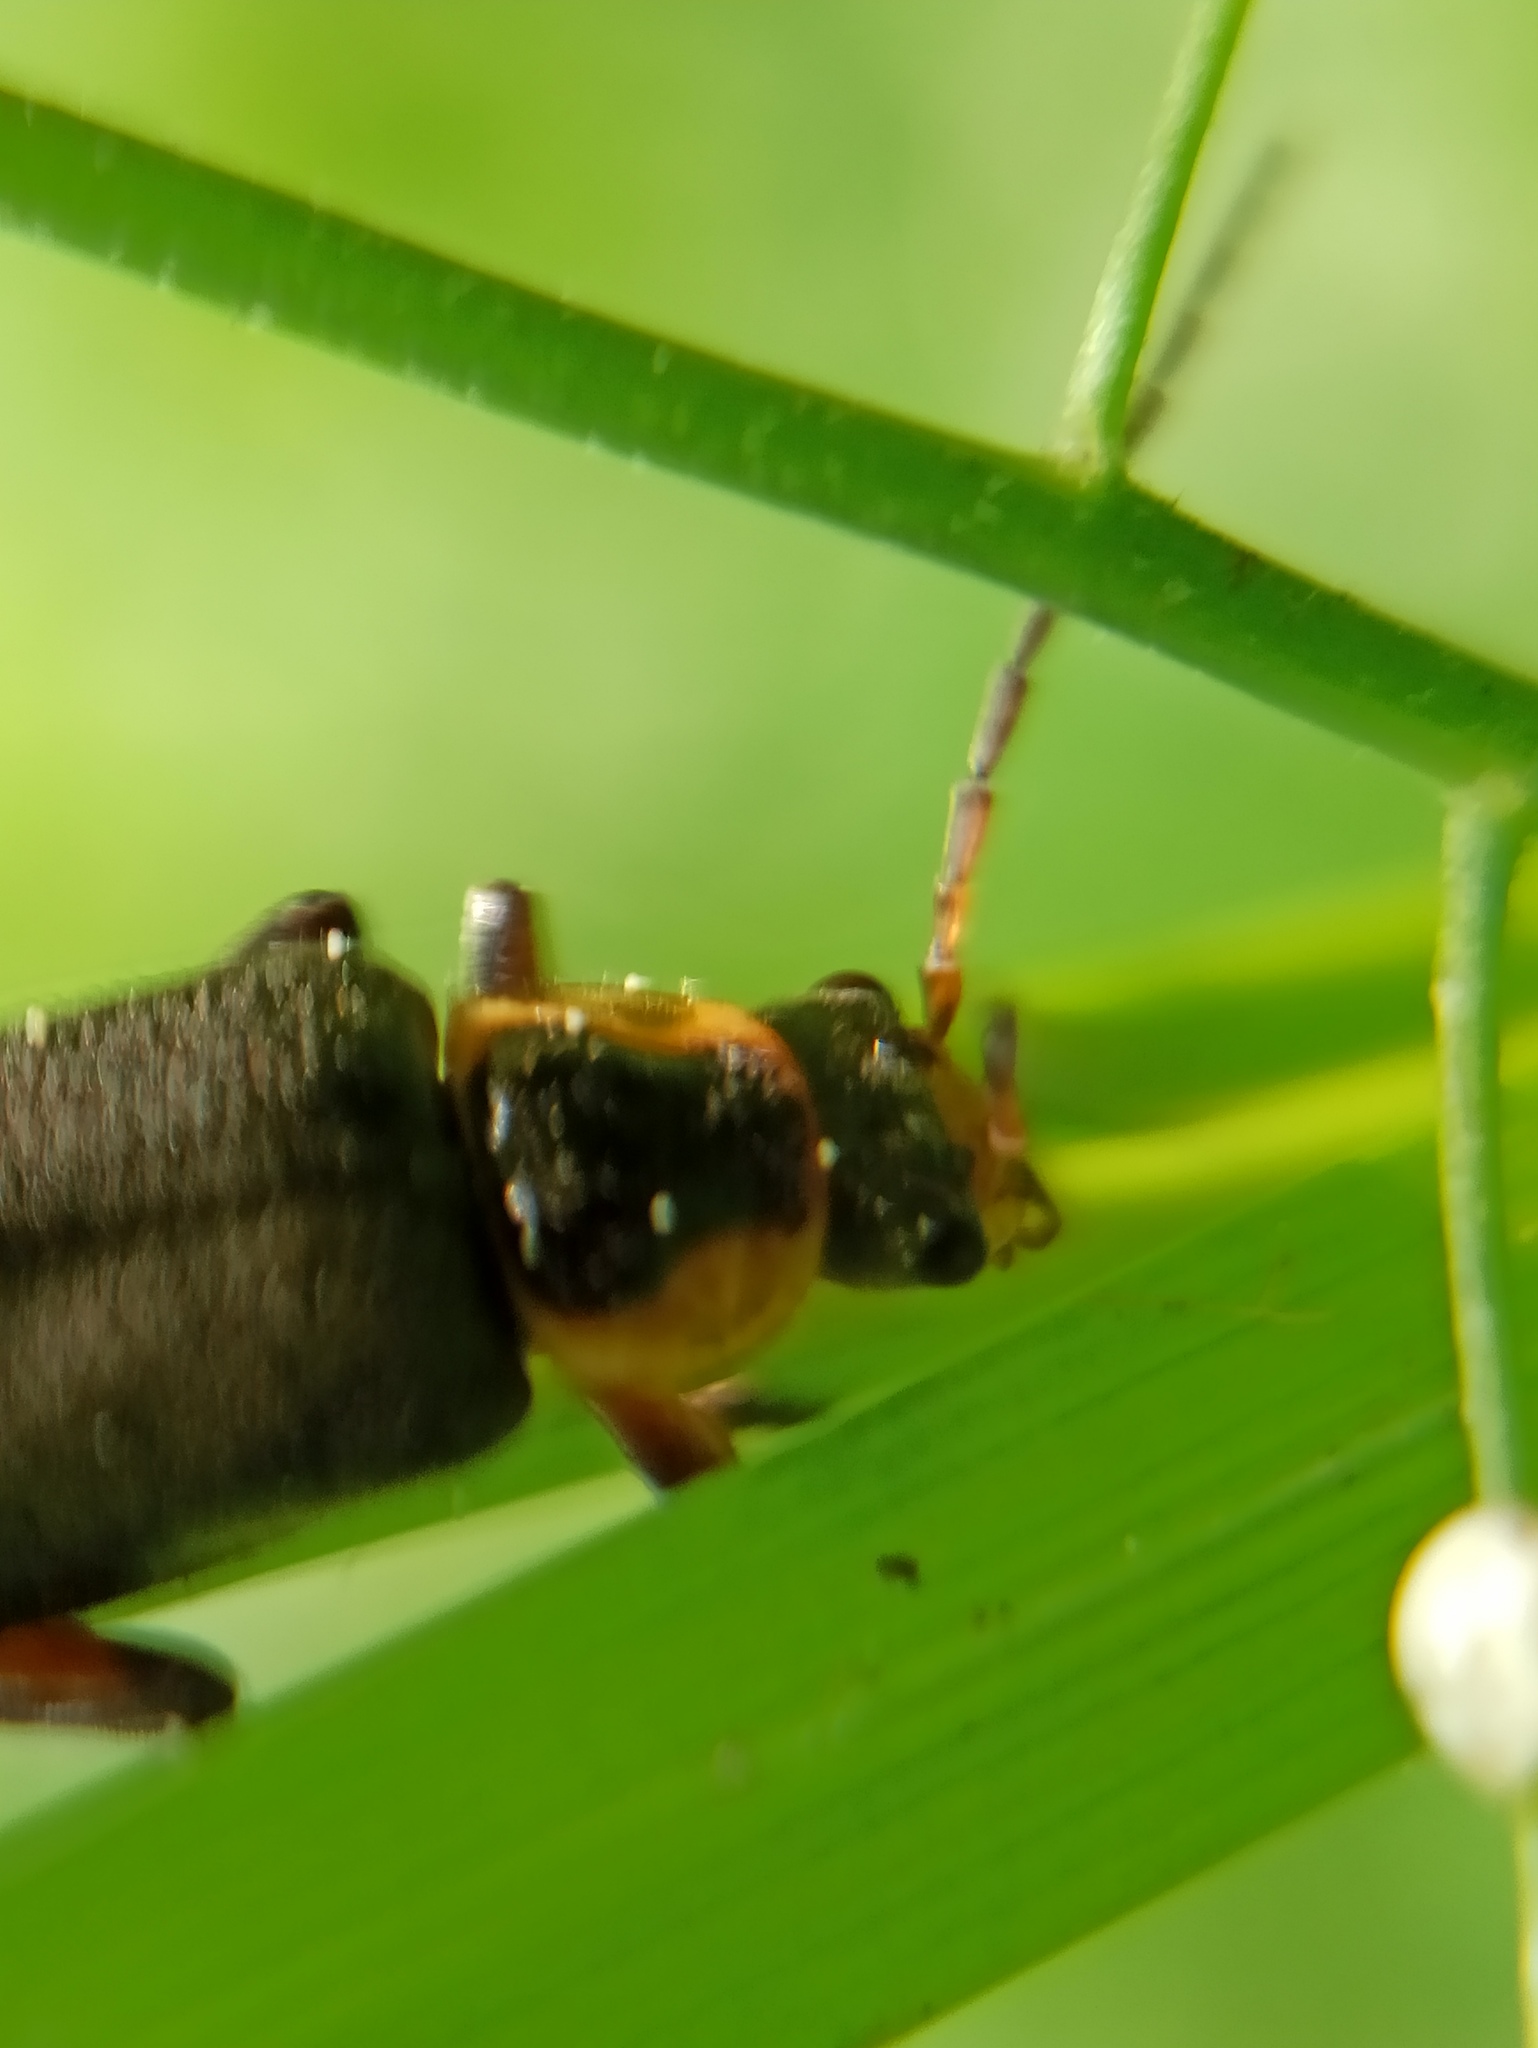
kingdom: Animalia
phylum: Arthropoda
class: Insecta
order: Coleoptera
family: Cantharidae
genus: Cantharis
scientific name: Cantharis nigricans
